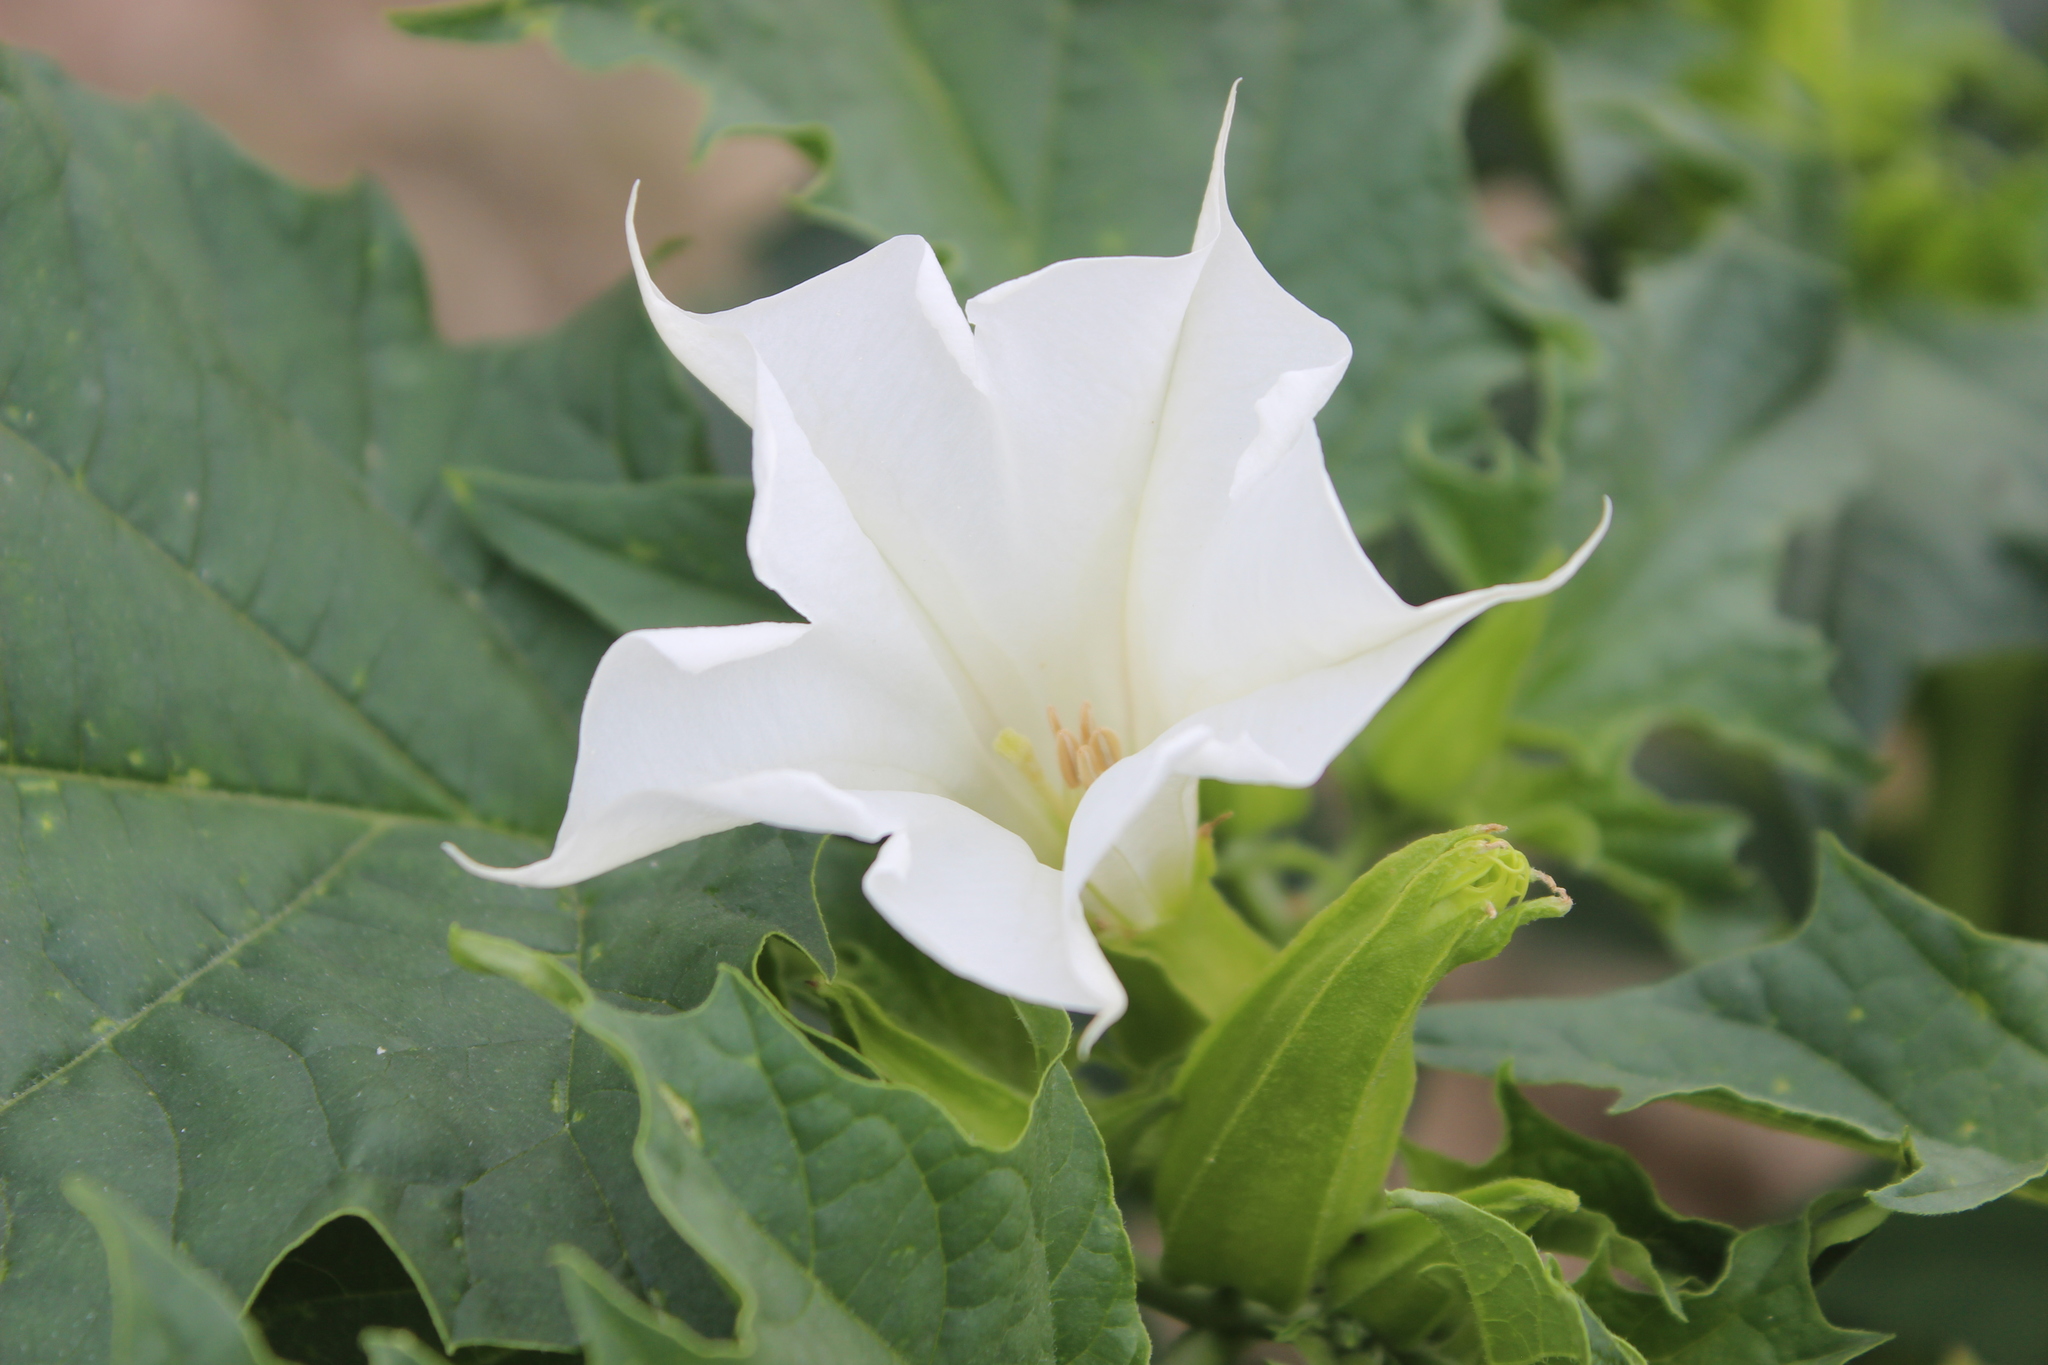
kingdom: Plantae
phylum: Tracheophyta
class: Magnoliopsida
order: Solanales
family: Solanaceae
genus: Datura
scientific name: Datura stramonium
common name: Thorn-apple
